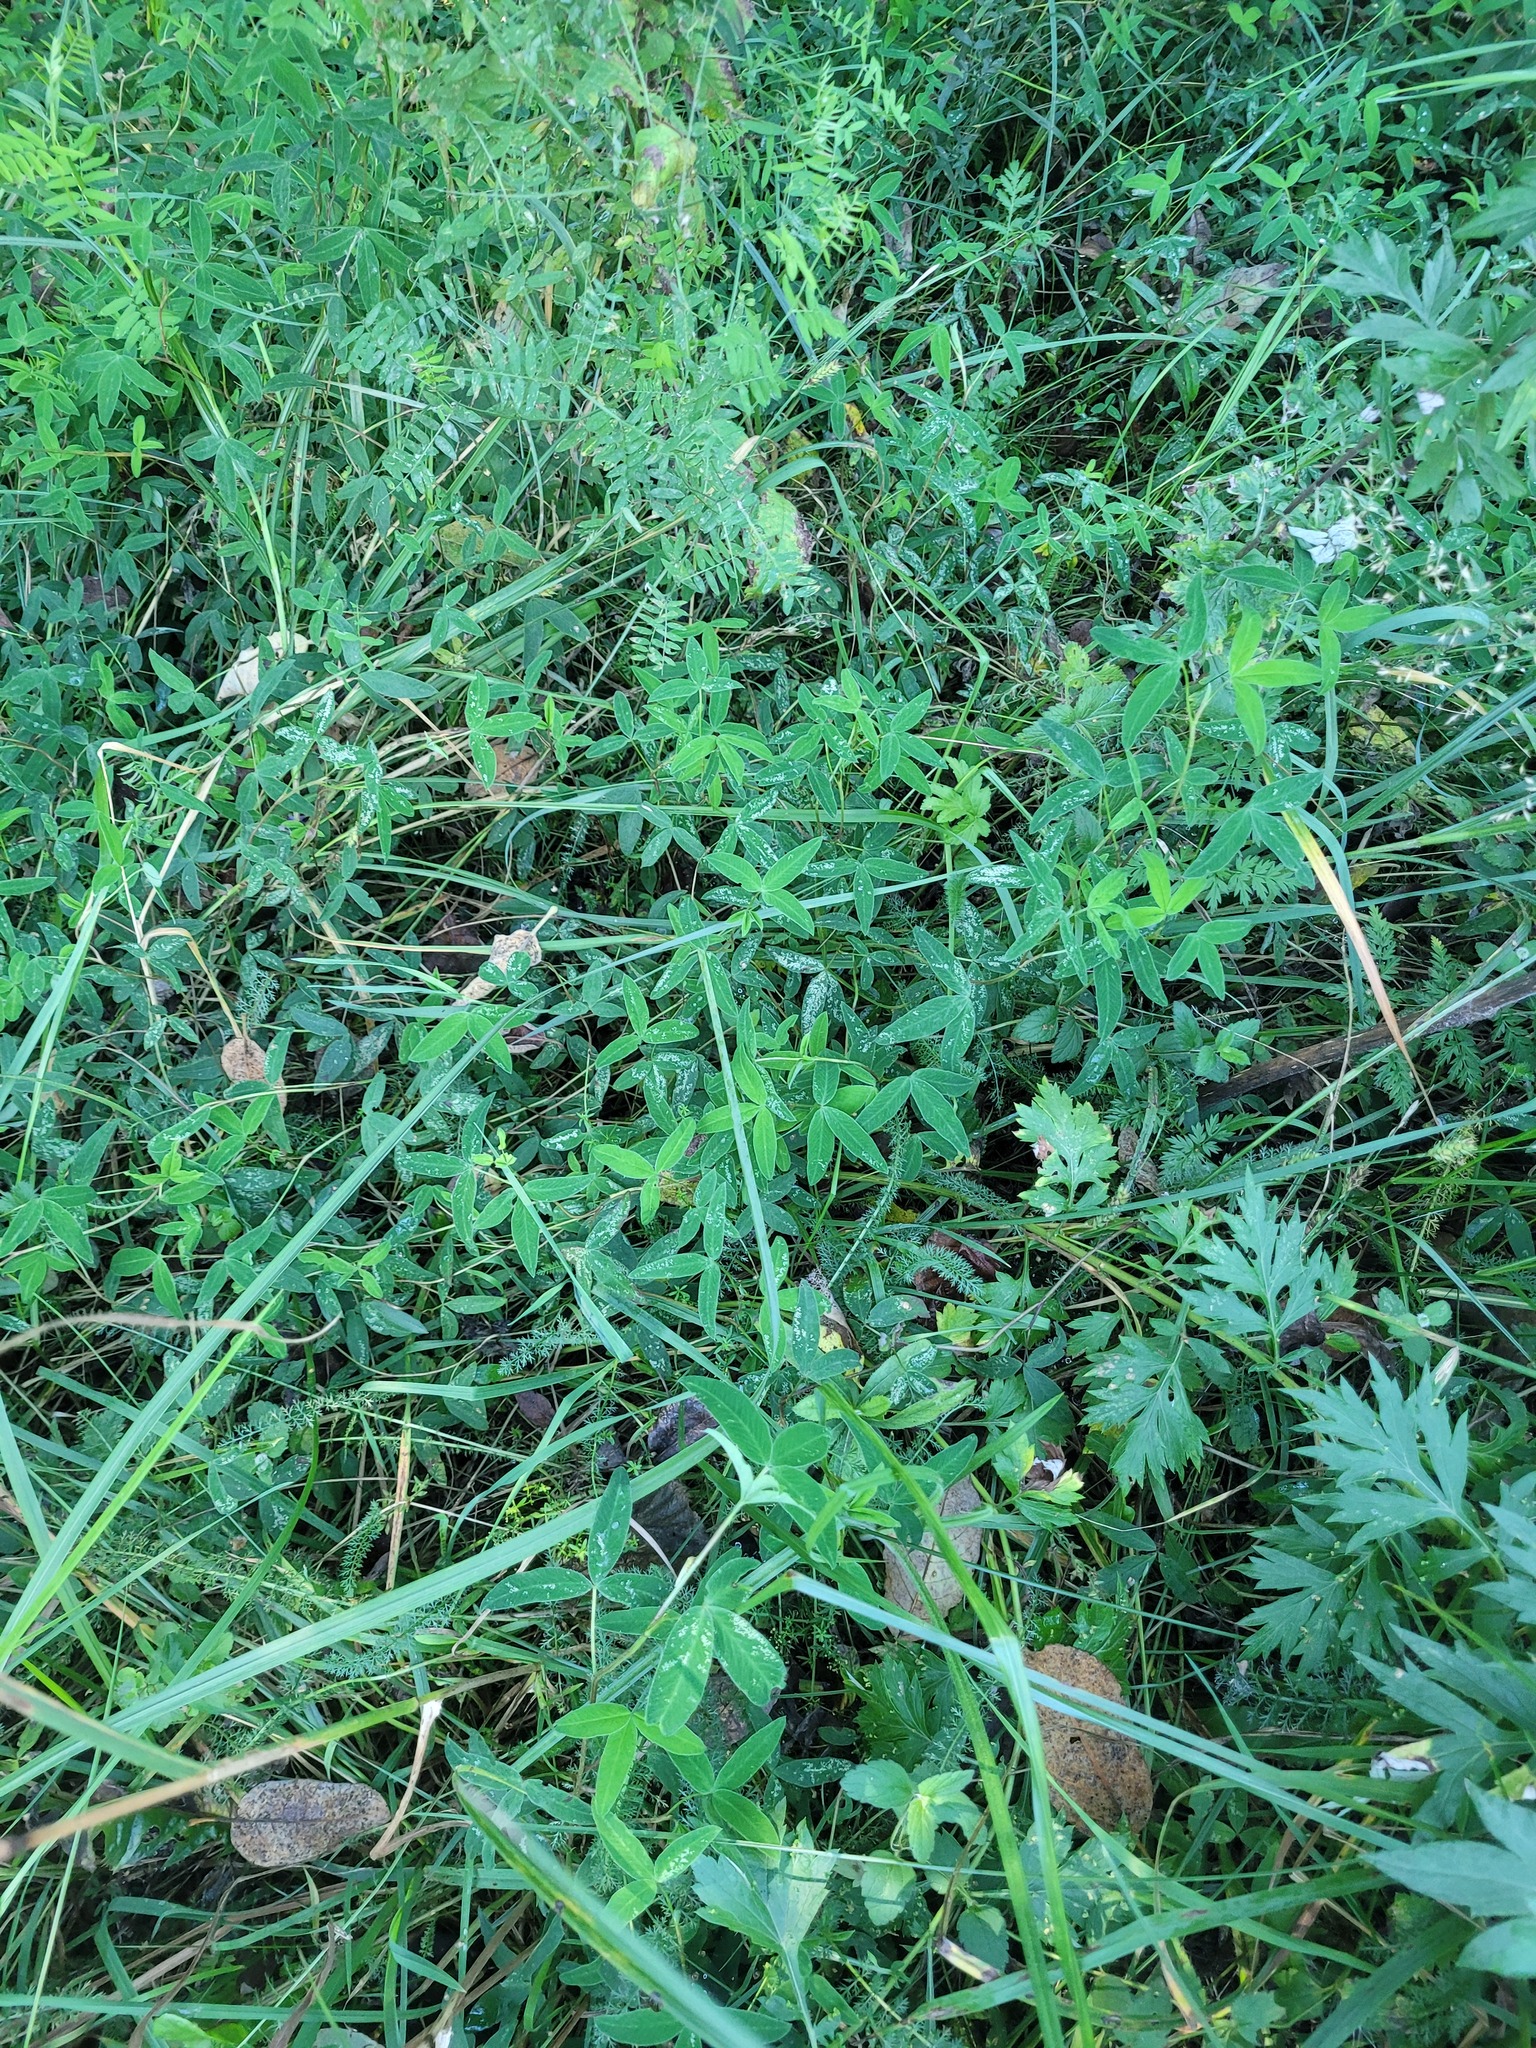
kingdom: Plantae
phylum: Tracheophyta
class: Magnoliopsida
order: Fabales
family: Fabaceae
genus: Trifolium
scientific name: Trifolium medium
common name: Zigzag clover
